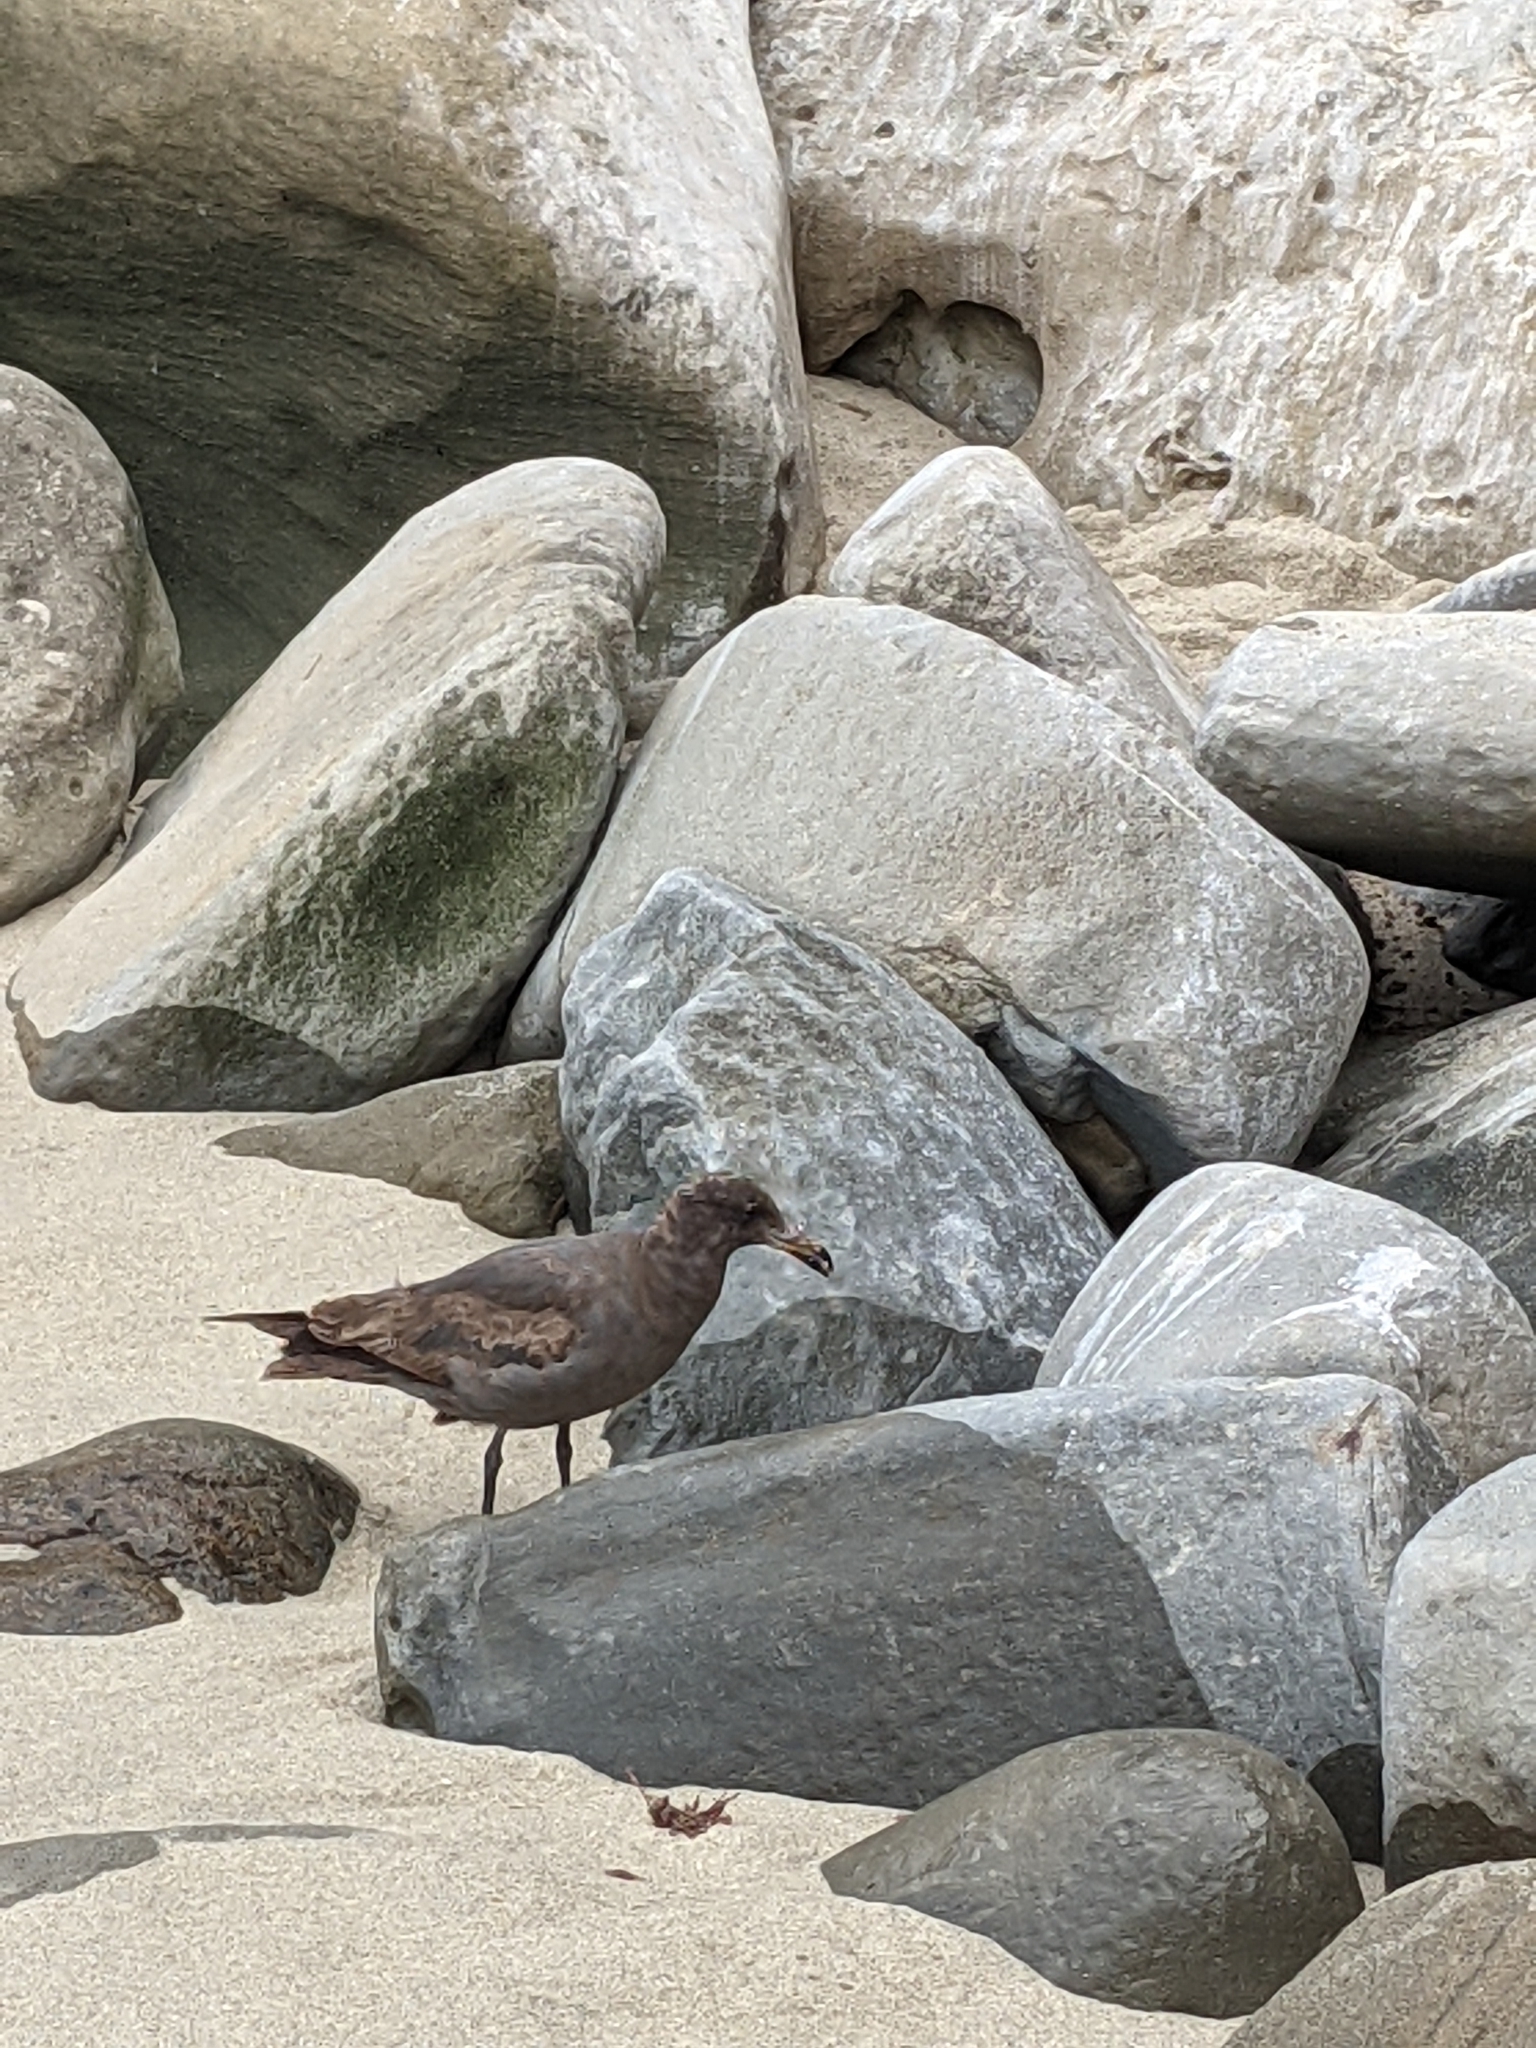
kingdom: Animalia
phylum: Chordata
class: Aves
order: Charadriiformes
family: Laridae
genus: Larus
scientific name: Larus heermanni
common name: Heermann's gull
